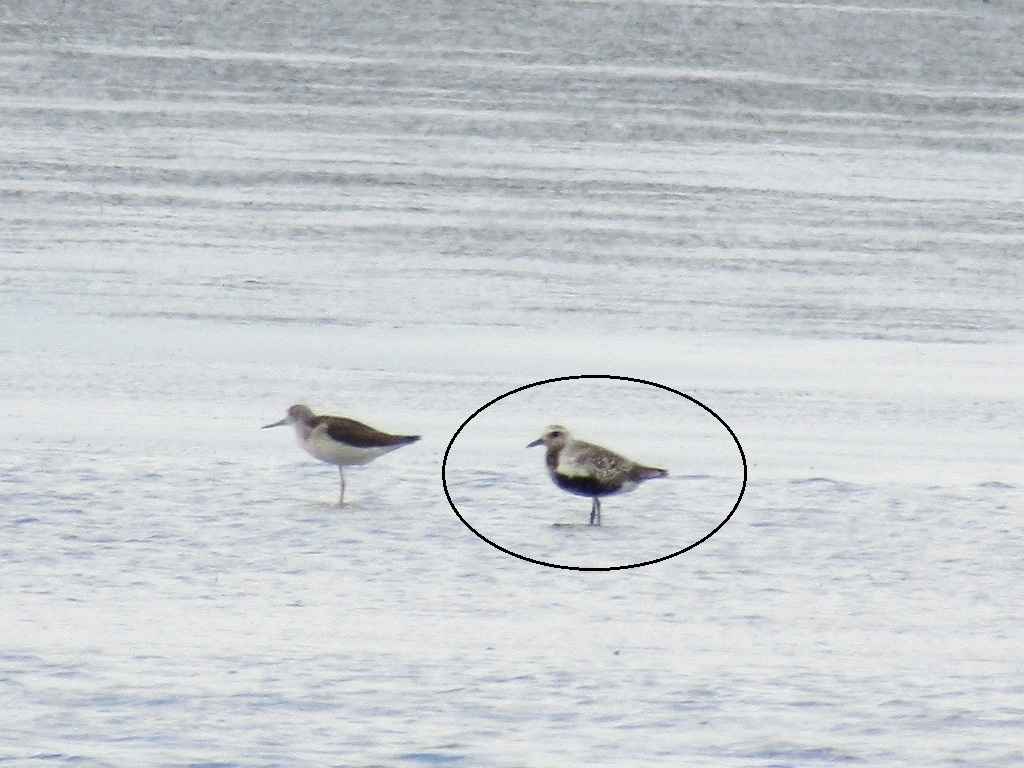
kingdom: Animalia
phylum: Chordata
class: Aves
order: Charadriiformes
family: Charadriidae
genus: Pluvialis
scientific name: Pluvialis squatarola
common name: Grey plover
